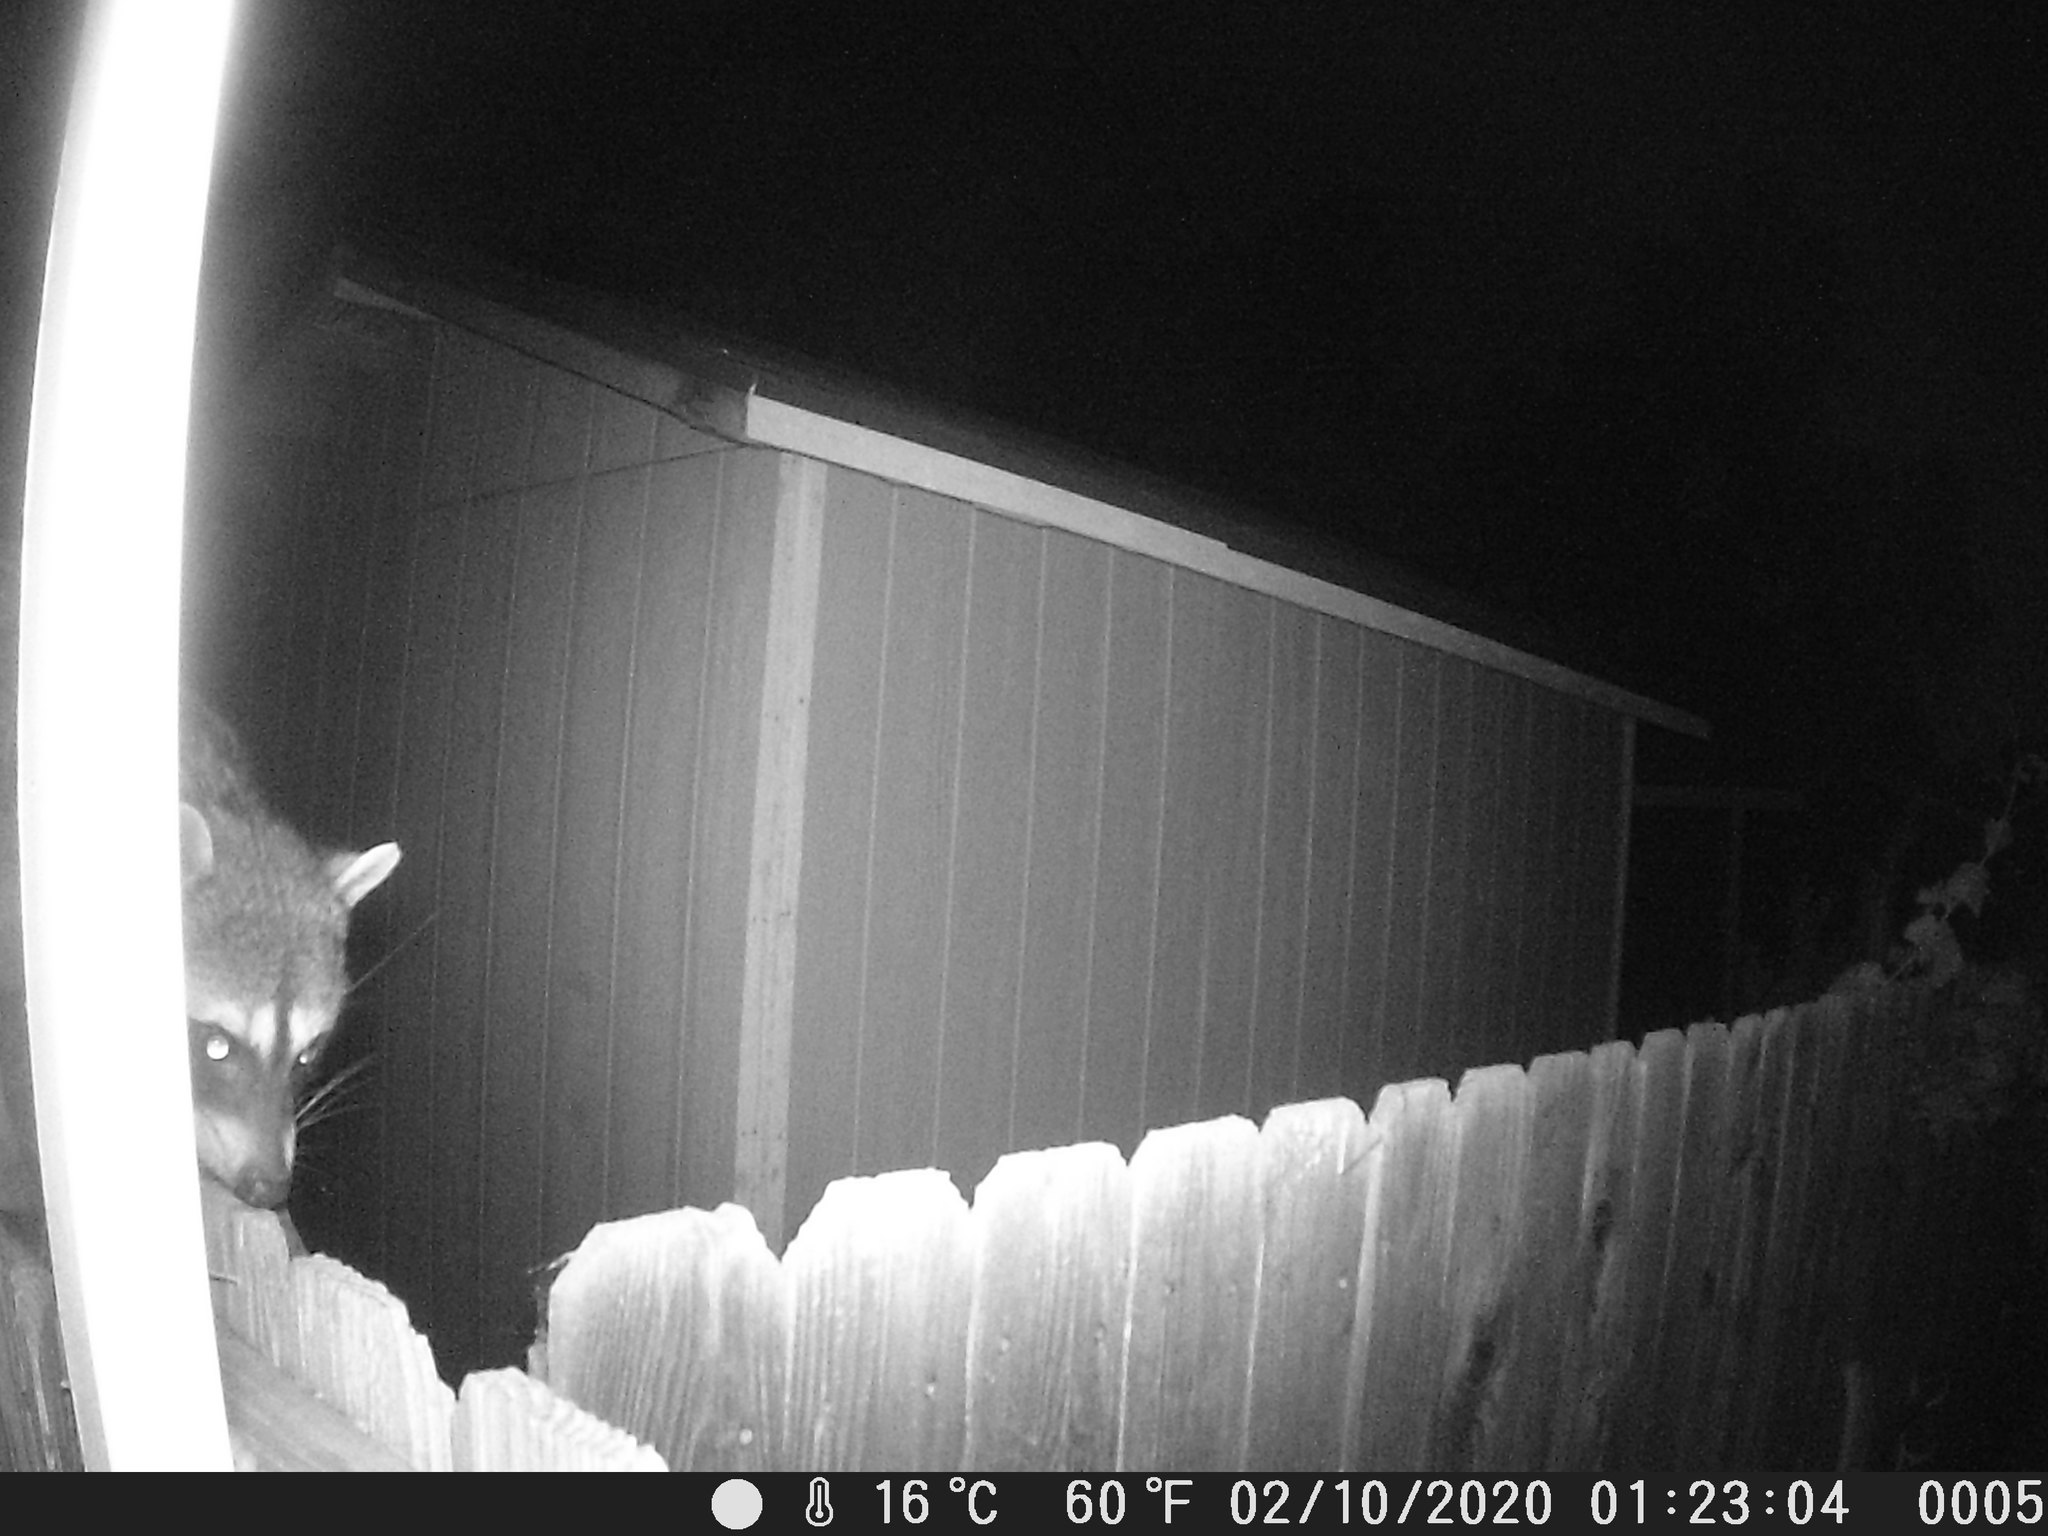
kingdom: Animalia
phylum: Chordata
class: Mammalia
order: Carnivora
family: Procyonidae
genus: Procyon
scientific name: Procyon lotor
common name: Raccoon
